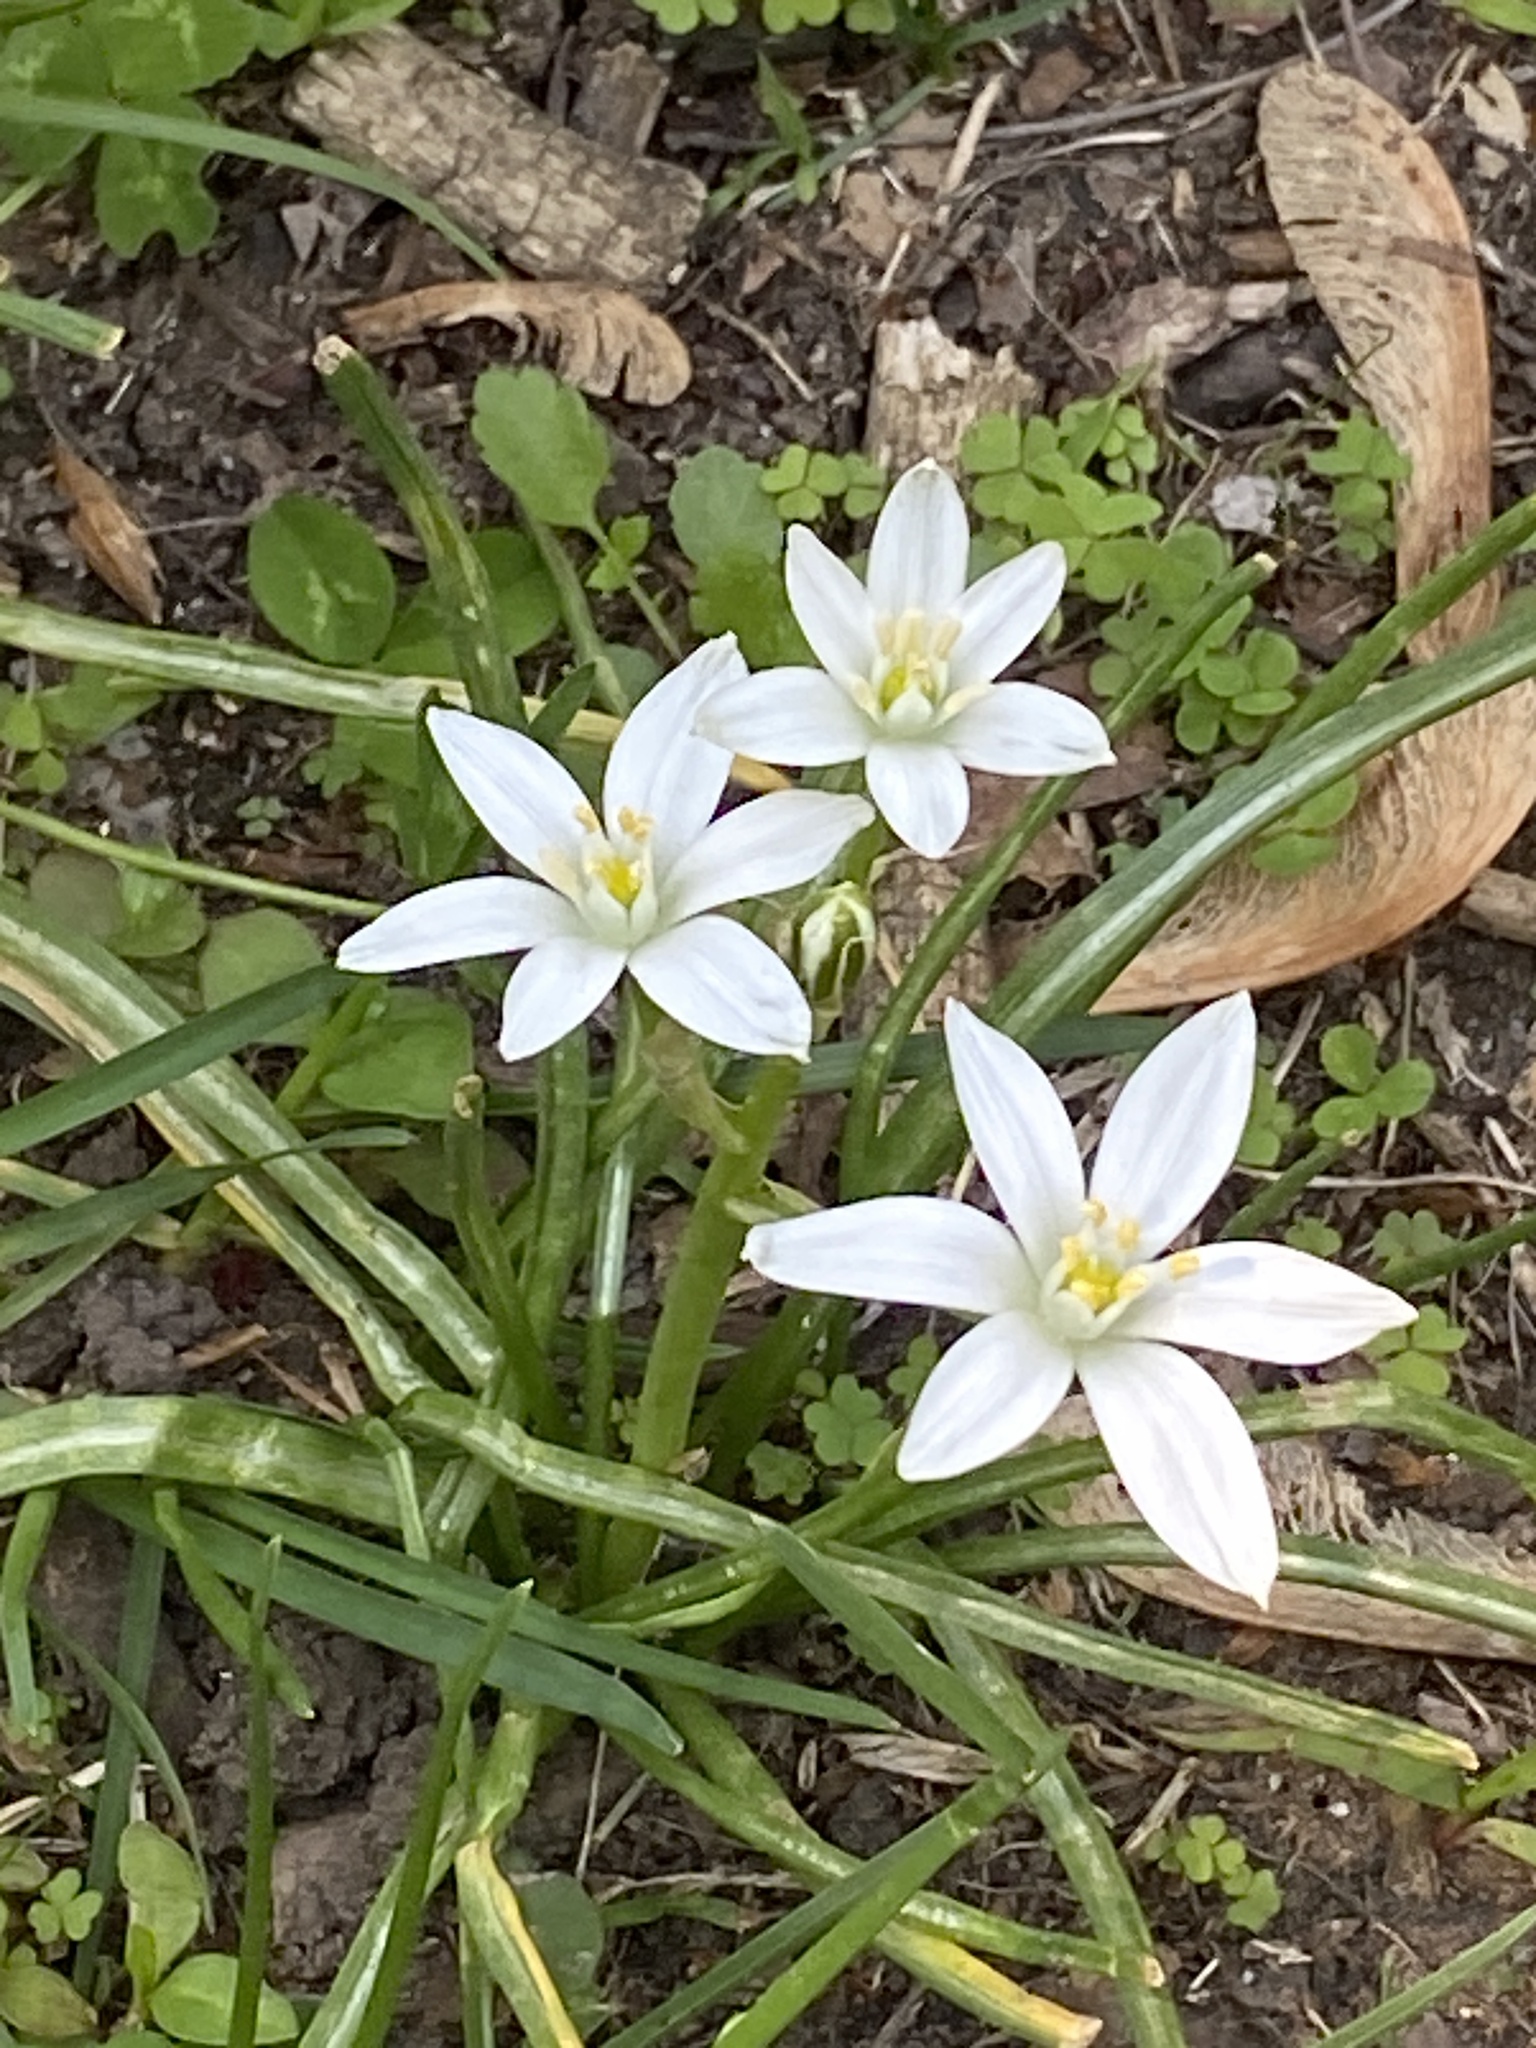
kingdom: Plantae
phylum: Tracheophyta
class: Liliopsida
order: Asparagales
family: Asparagaceae
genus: Ornithogalum
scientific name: Ornithogalum umbellatum
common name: Garden star-of-bethlehem
